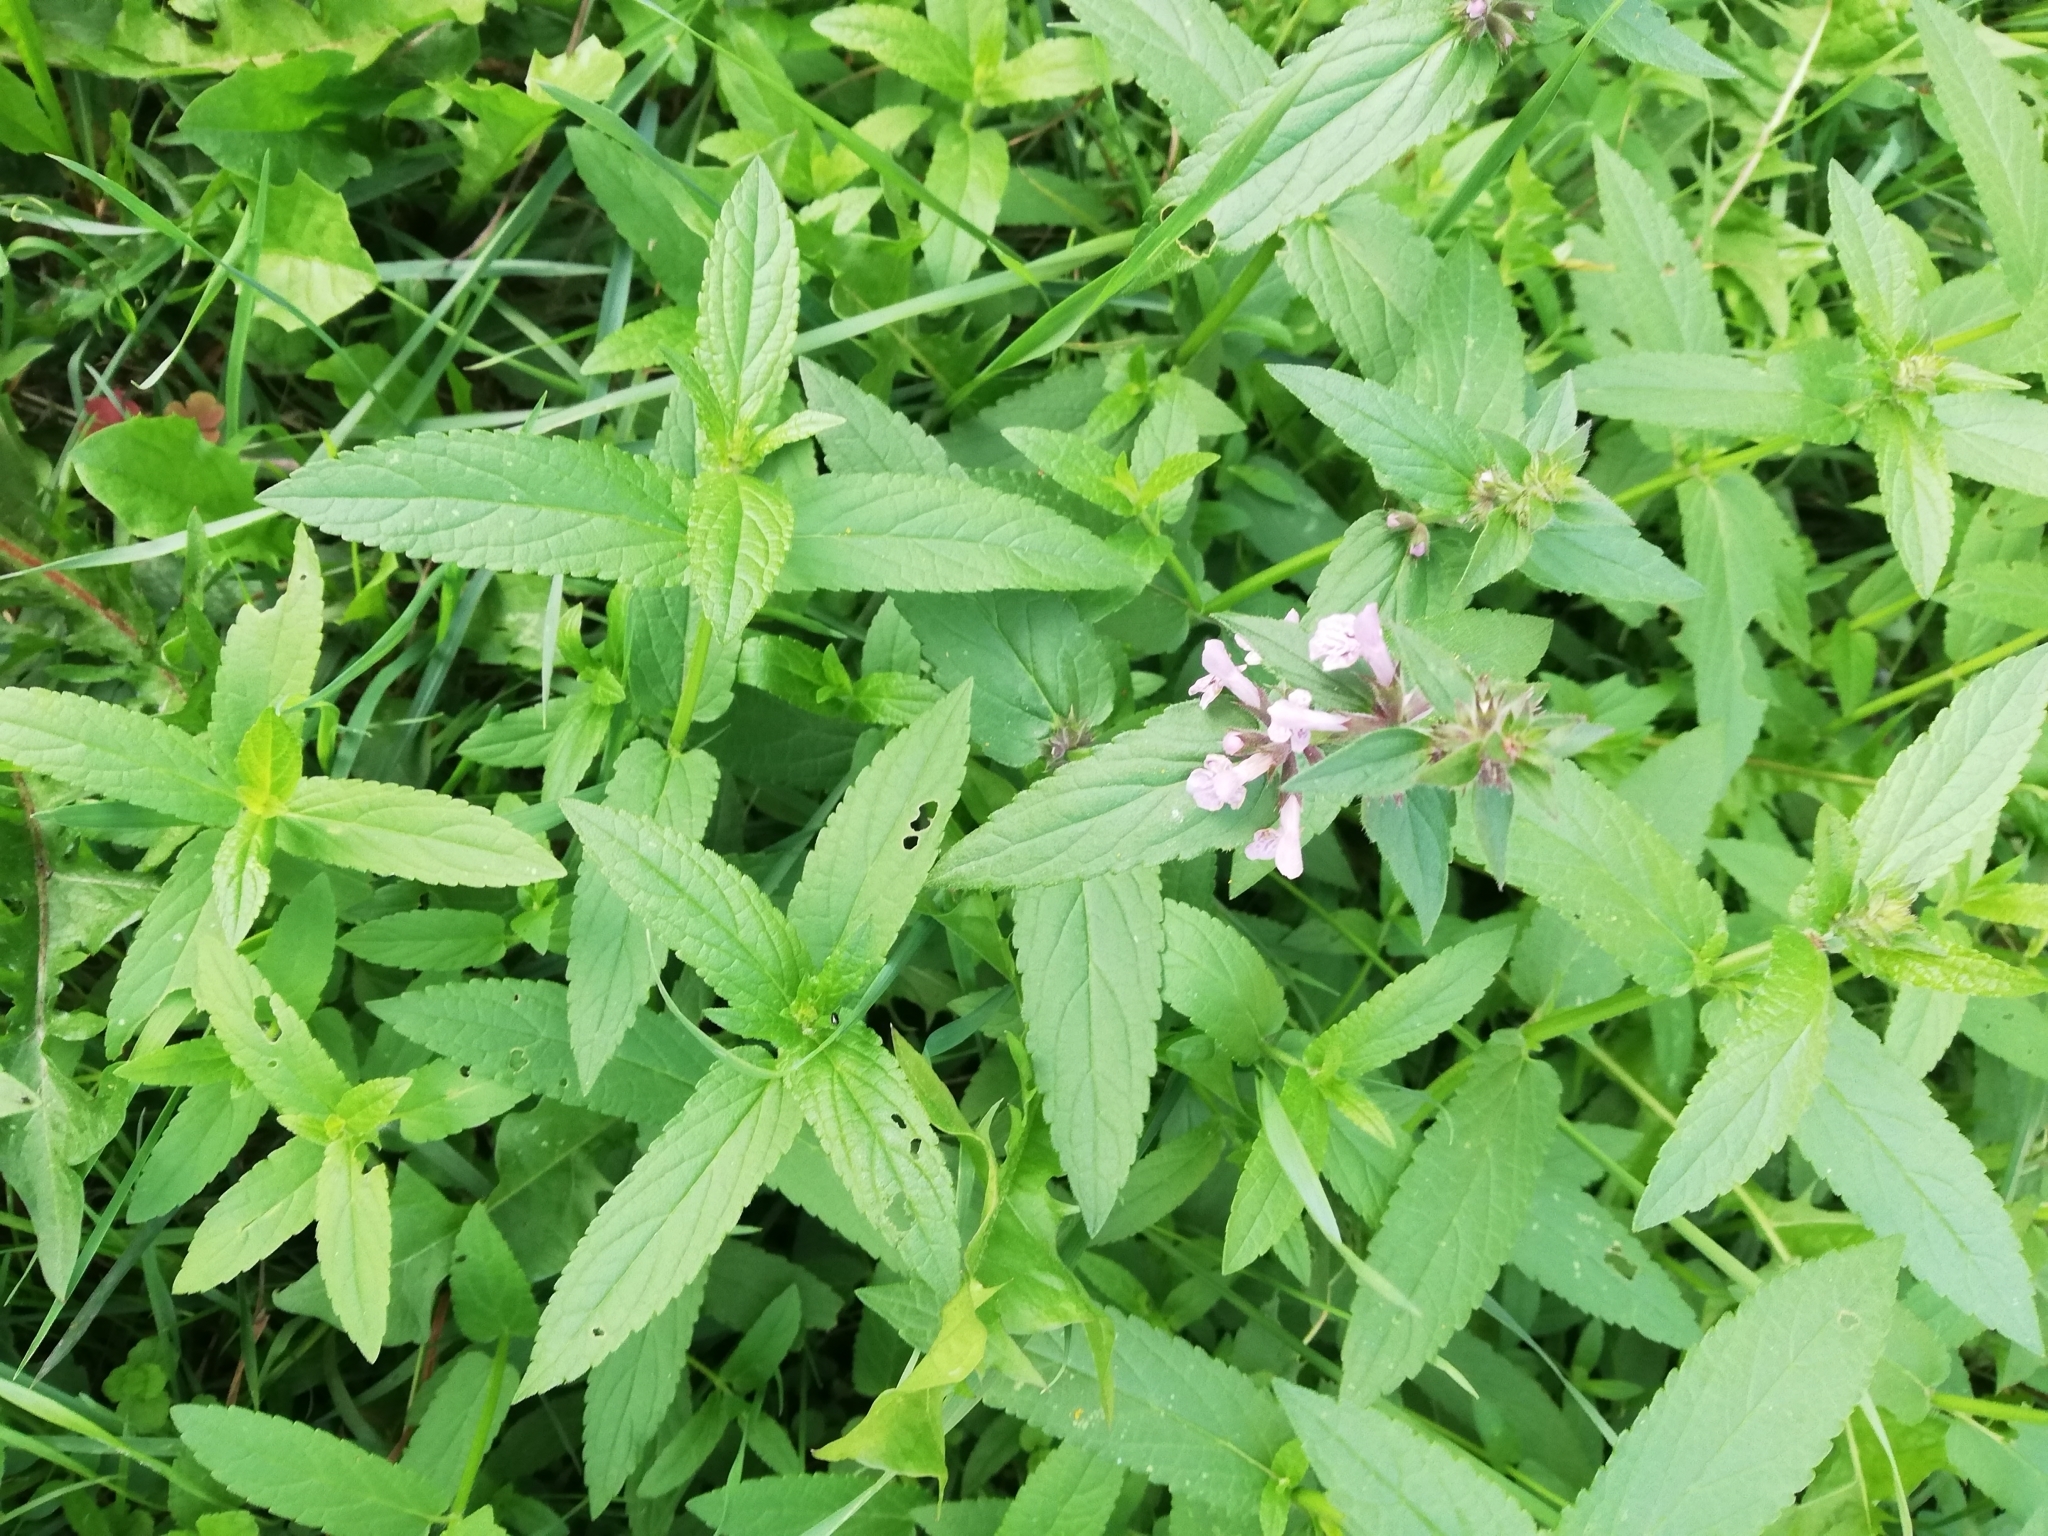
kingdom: Plantae
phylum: Tracheophyta
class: Magnoliopsida
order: Lamiales
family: Lamiaceae
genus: Stachys
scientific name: Stachys palustris
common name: Marsh woundwort
